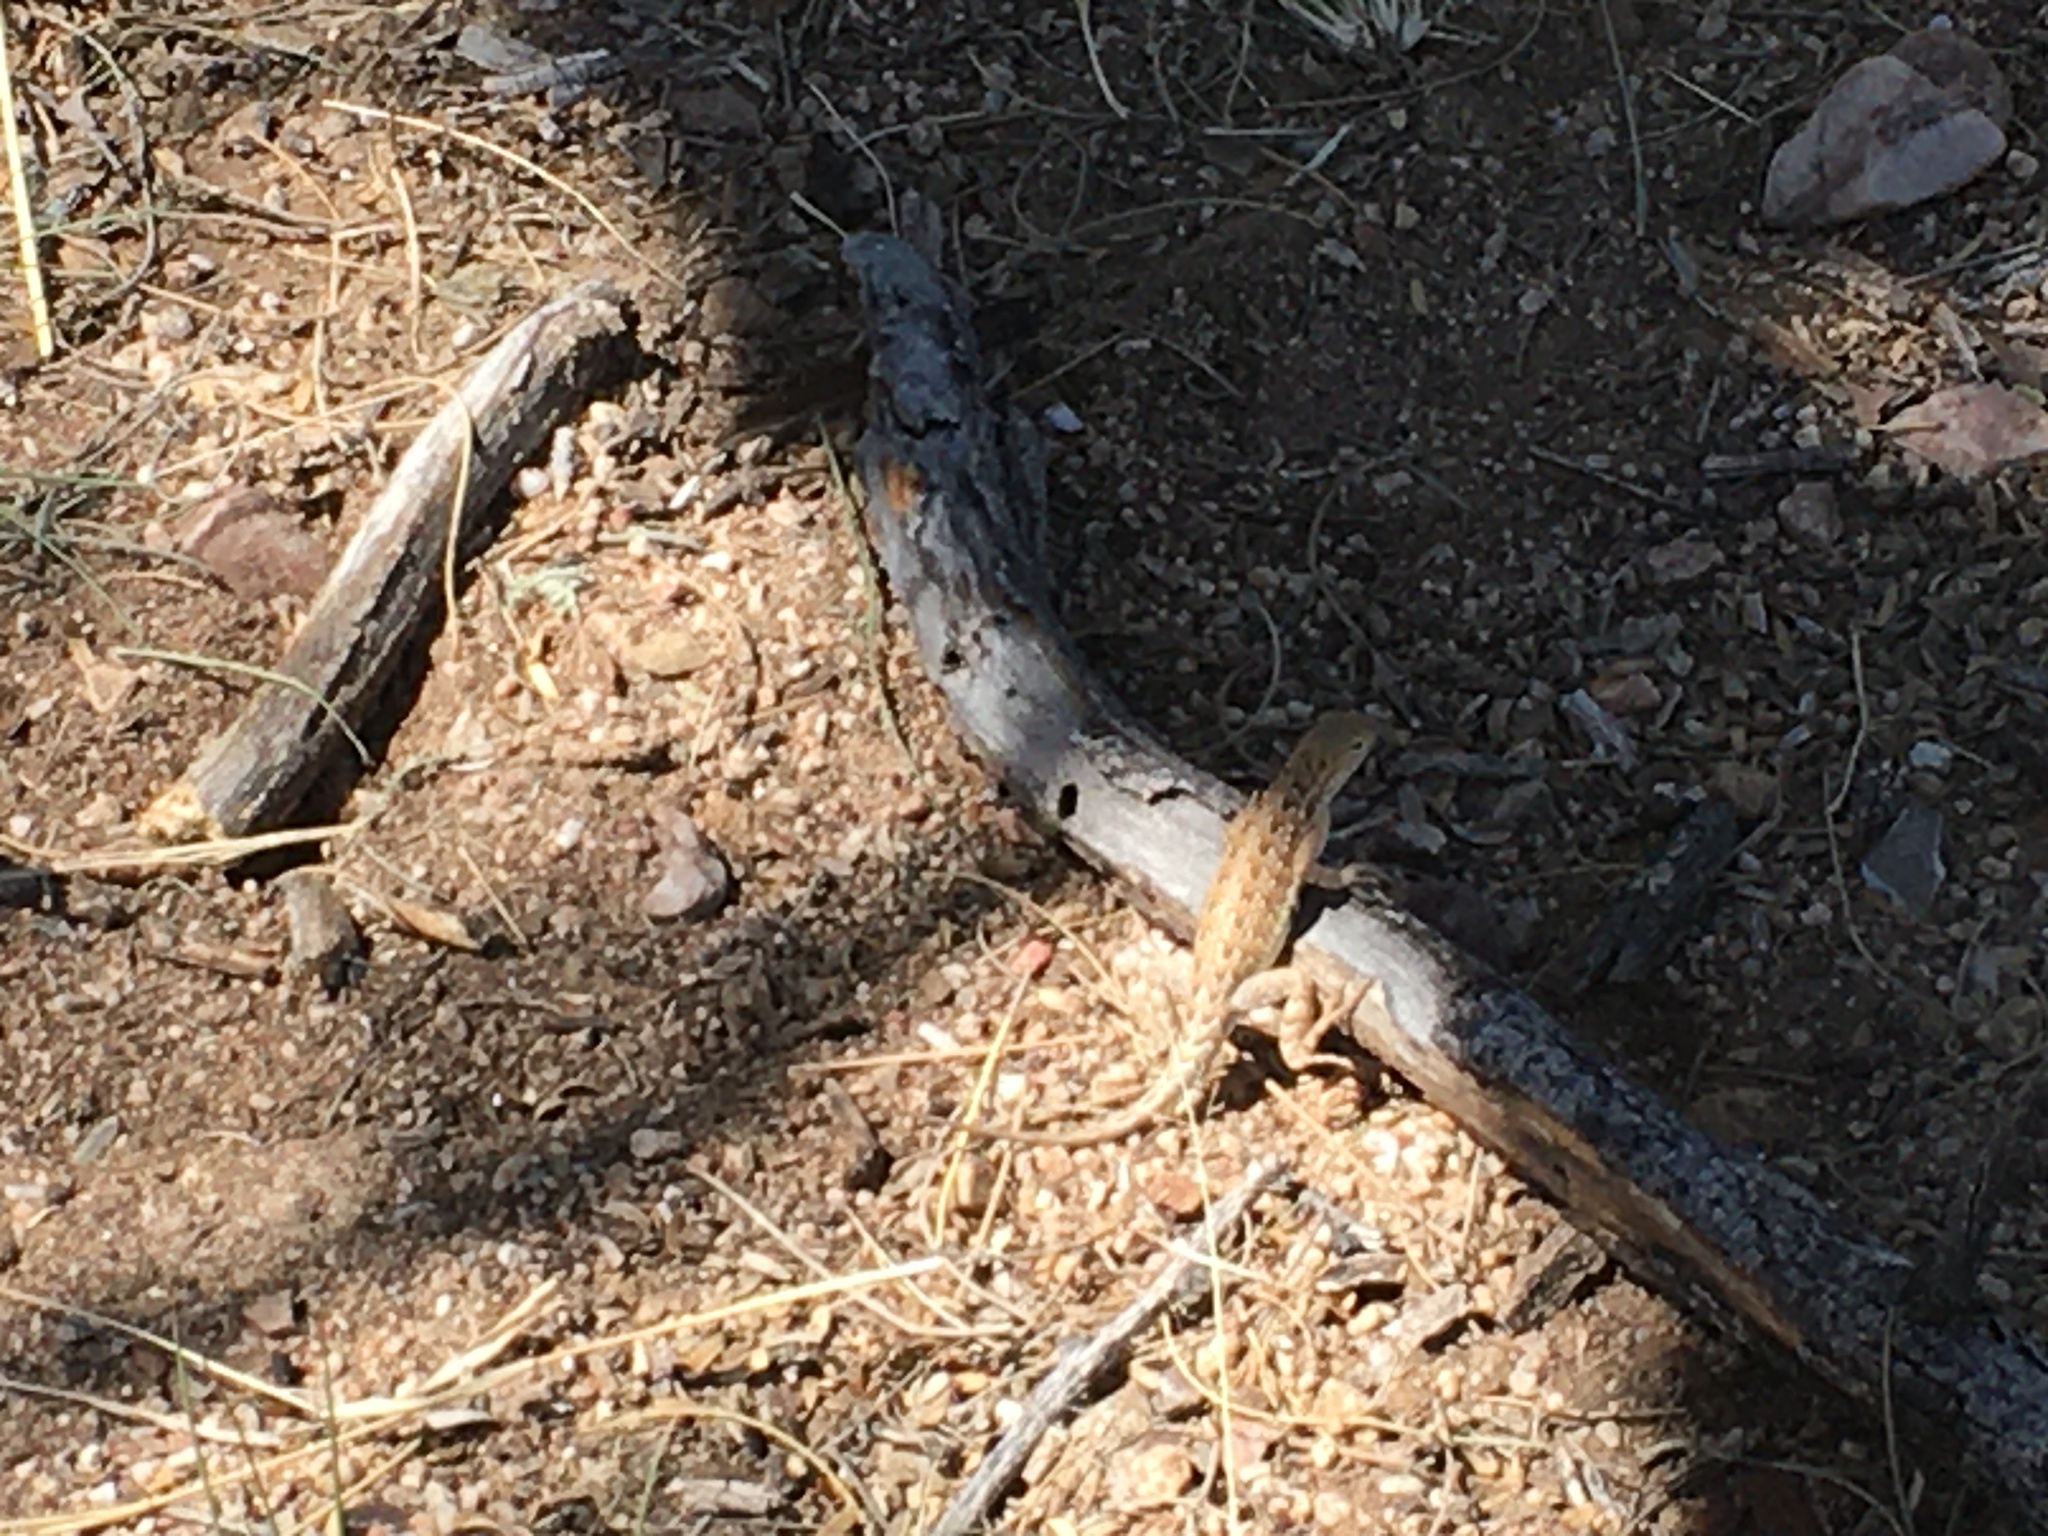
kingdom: Animalia
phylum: Chordata
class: Squamata
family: Phrynosomatidae
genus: Holbrookia
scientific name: Holbrookia elegans
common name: Elegant earless lizard
